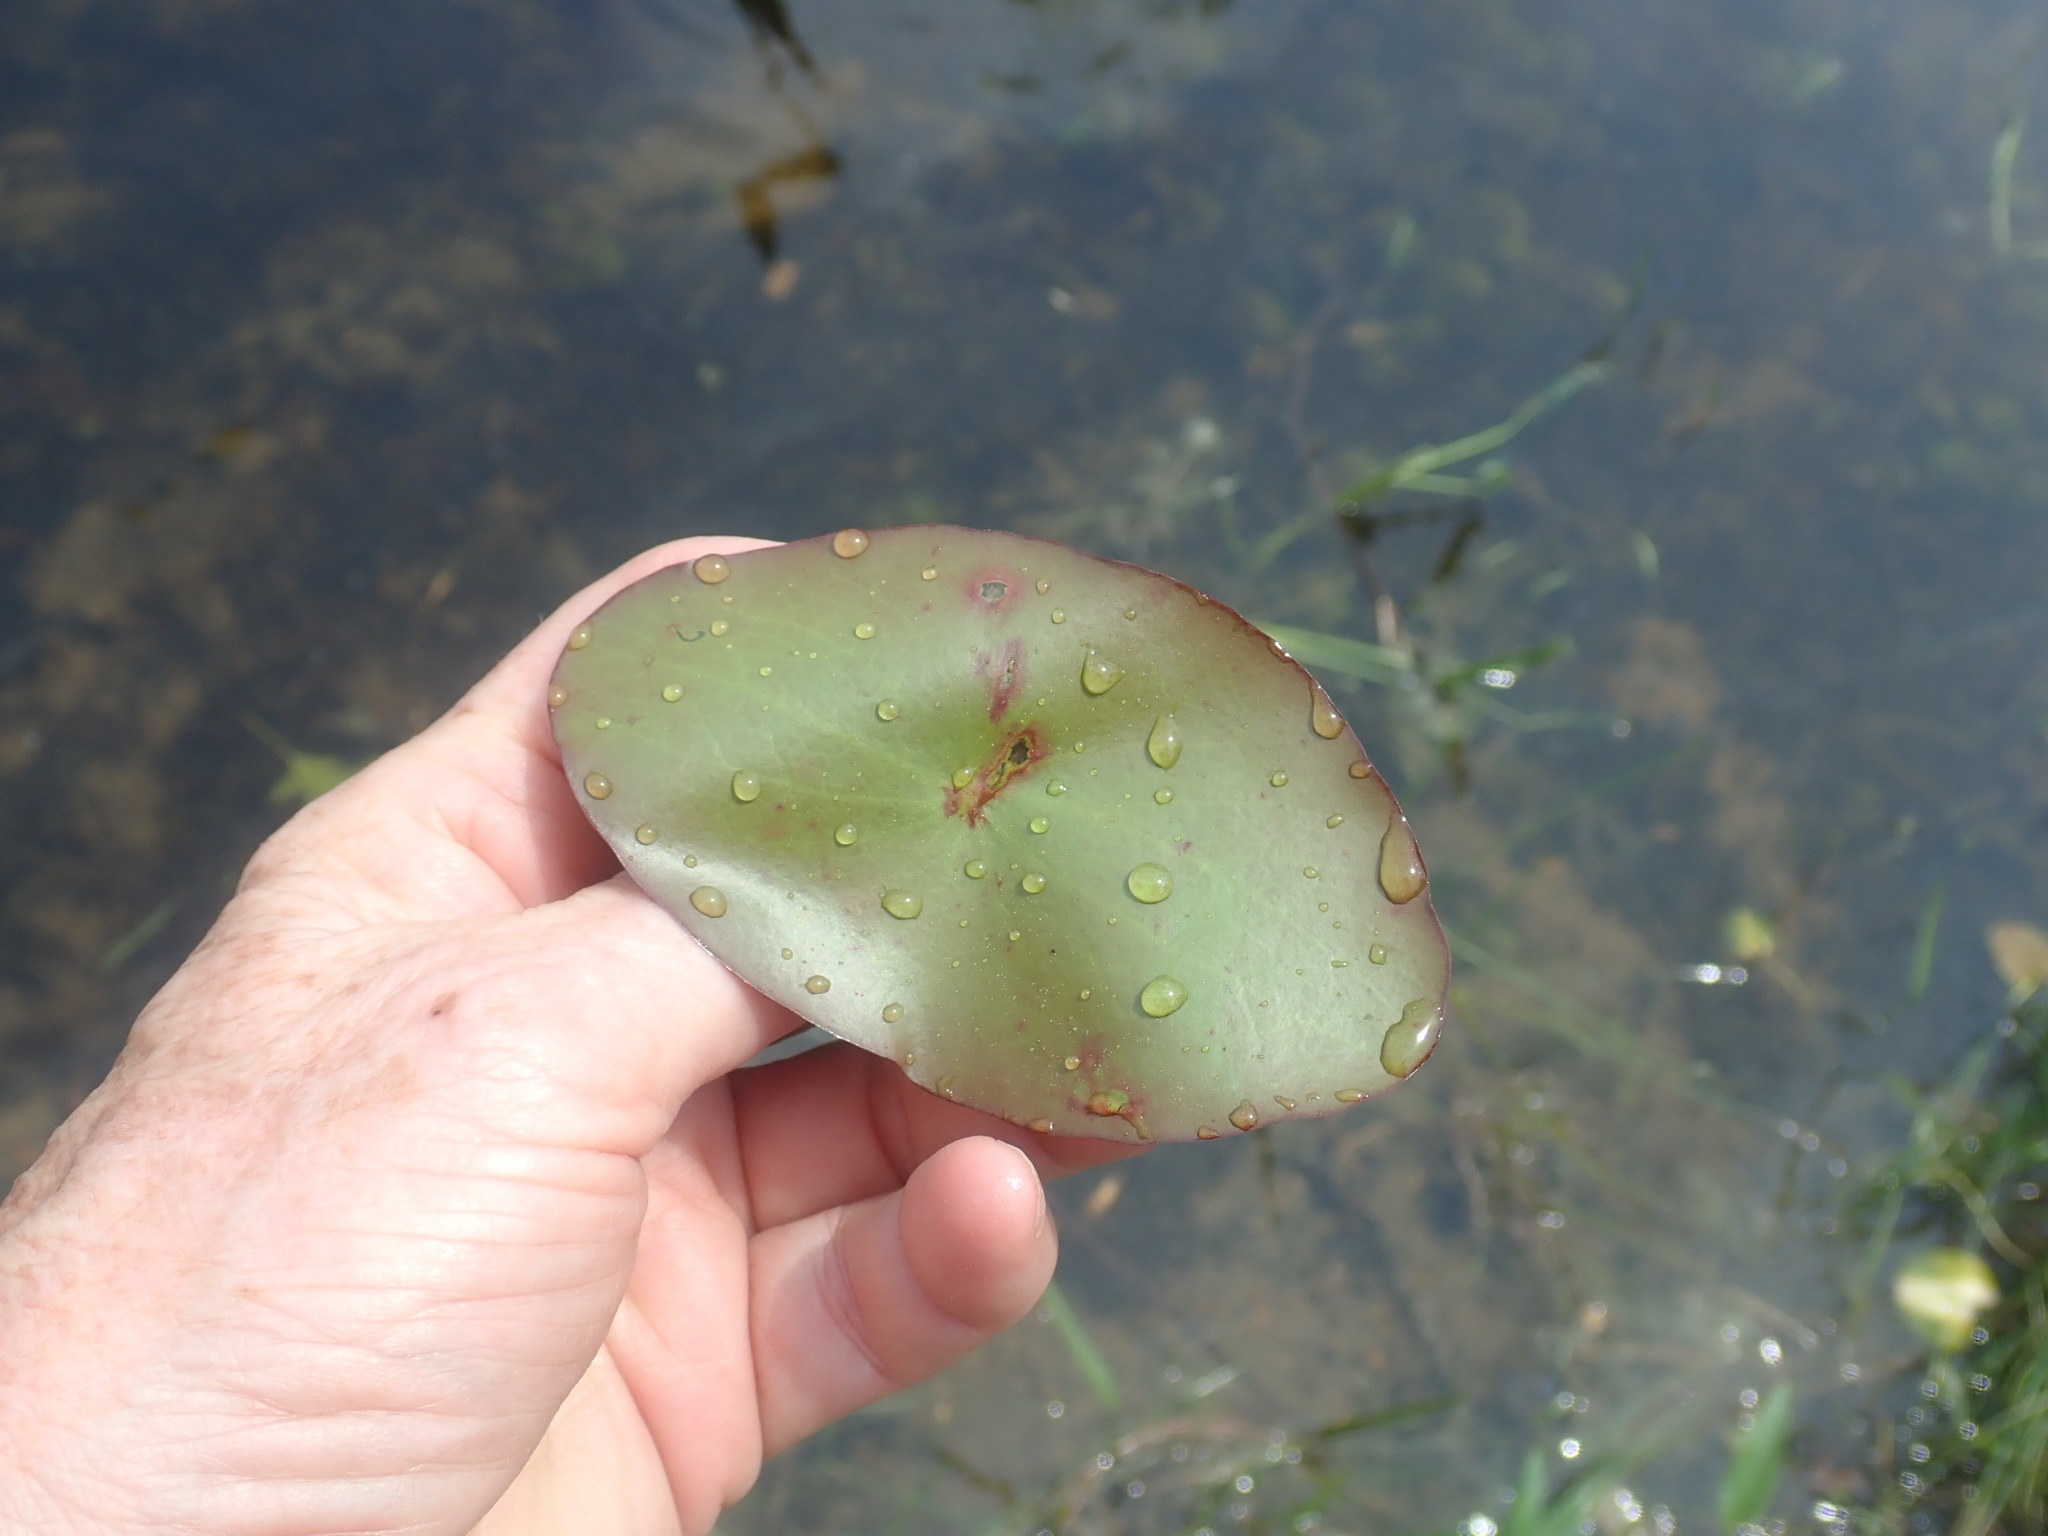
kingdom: Plantae
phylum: Tracheophyta
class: Magnoliopsida
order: Nymphaeales
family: Cabombaceae
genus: Brasenia
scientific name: Brasenia schreberi
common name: Water-shield
